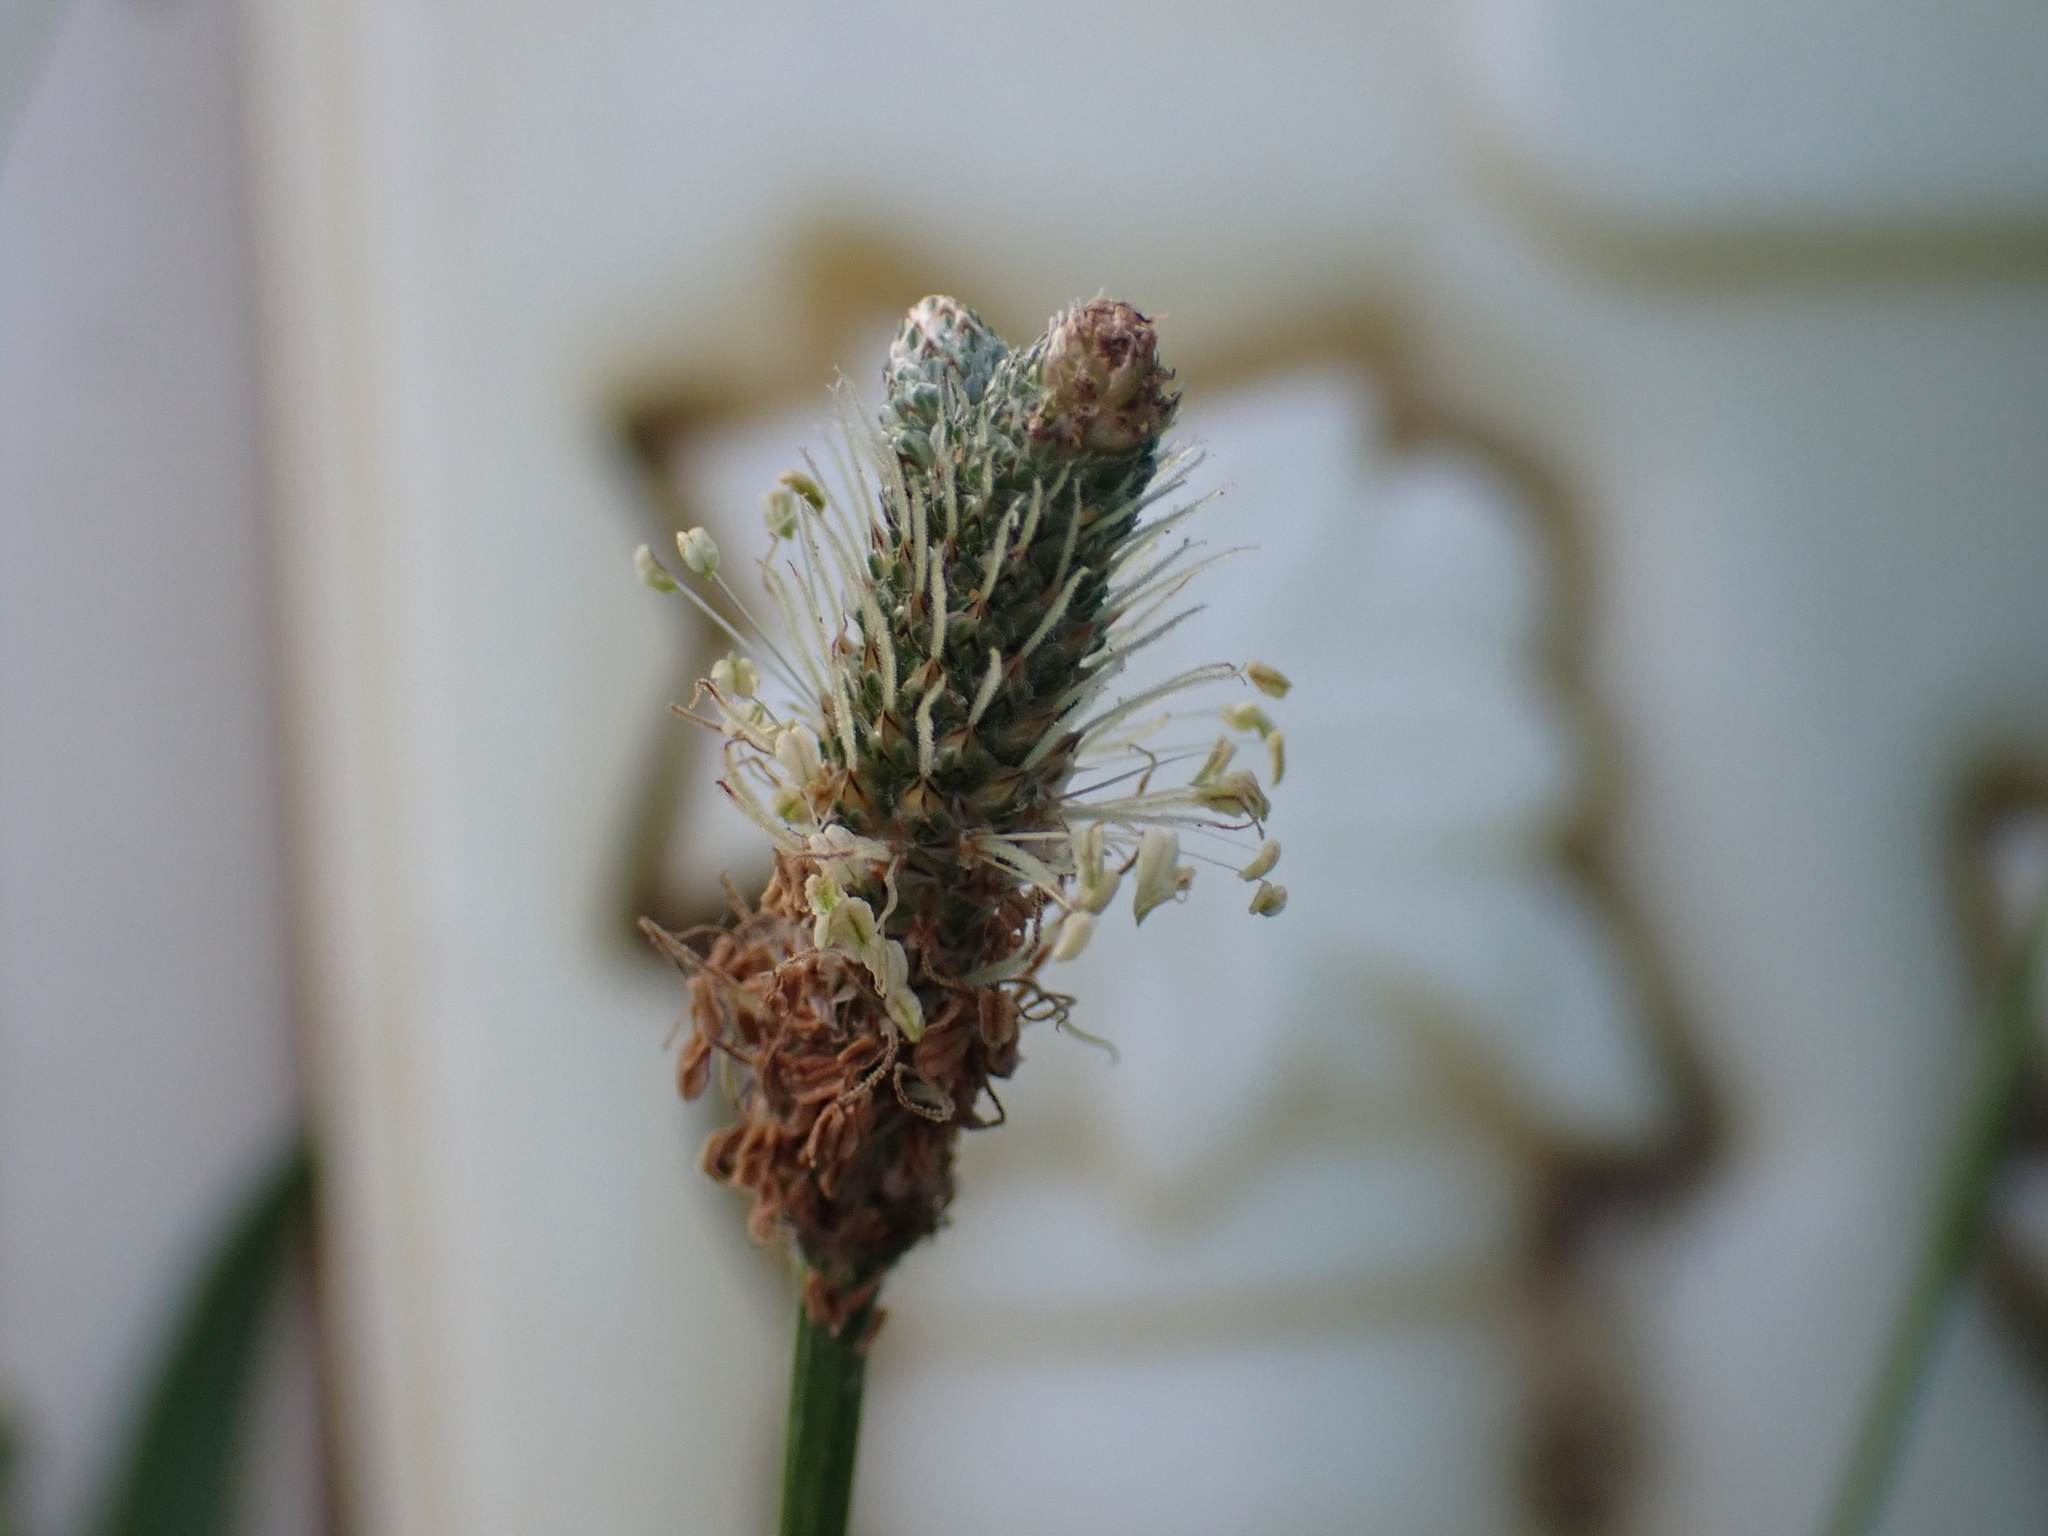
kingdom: Plantae
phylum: Tracheophyta
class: Magnoliopsida
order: Lamiales
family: Plantaginaceae
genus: Plantago
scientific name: Plantago lanceolata
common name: Ribwort plantain
